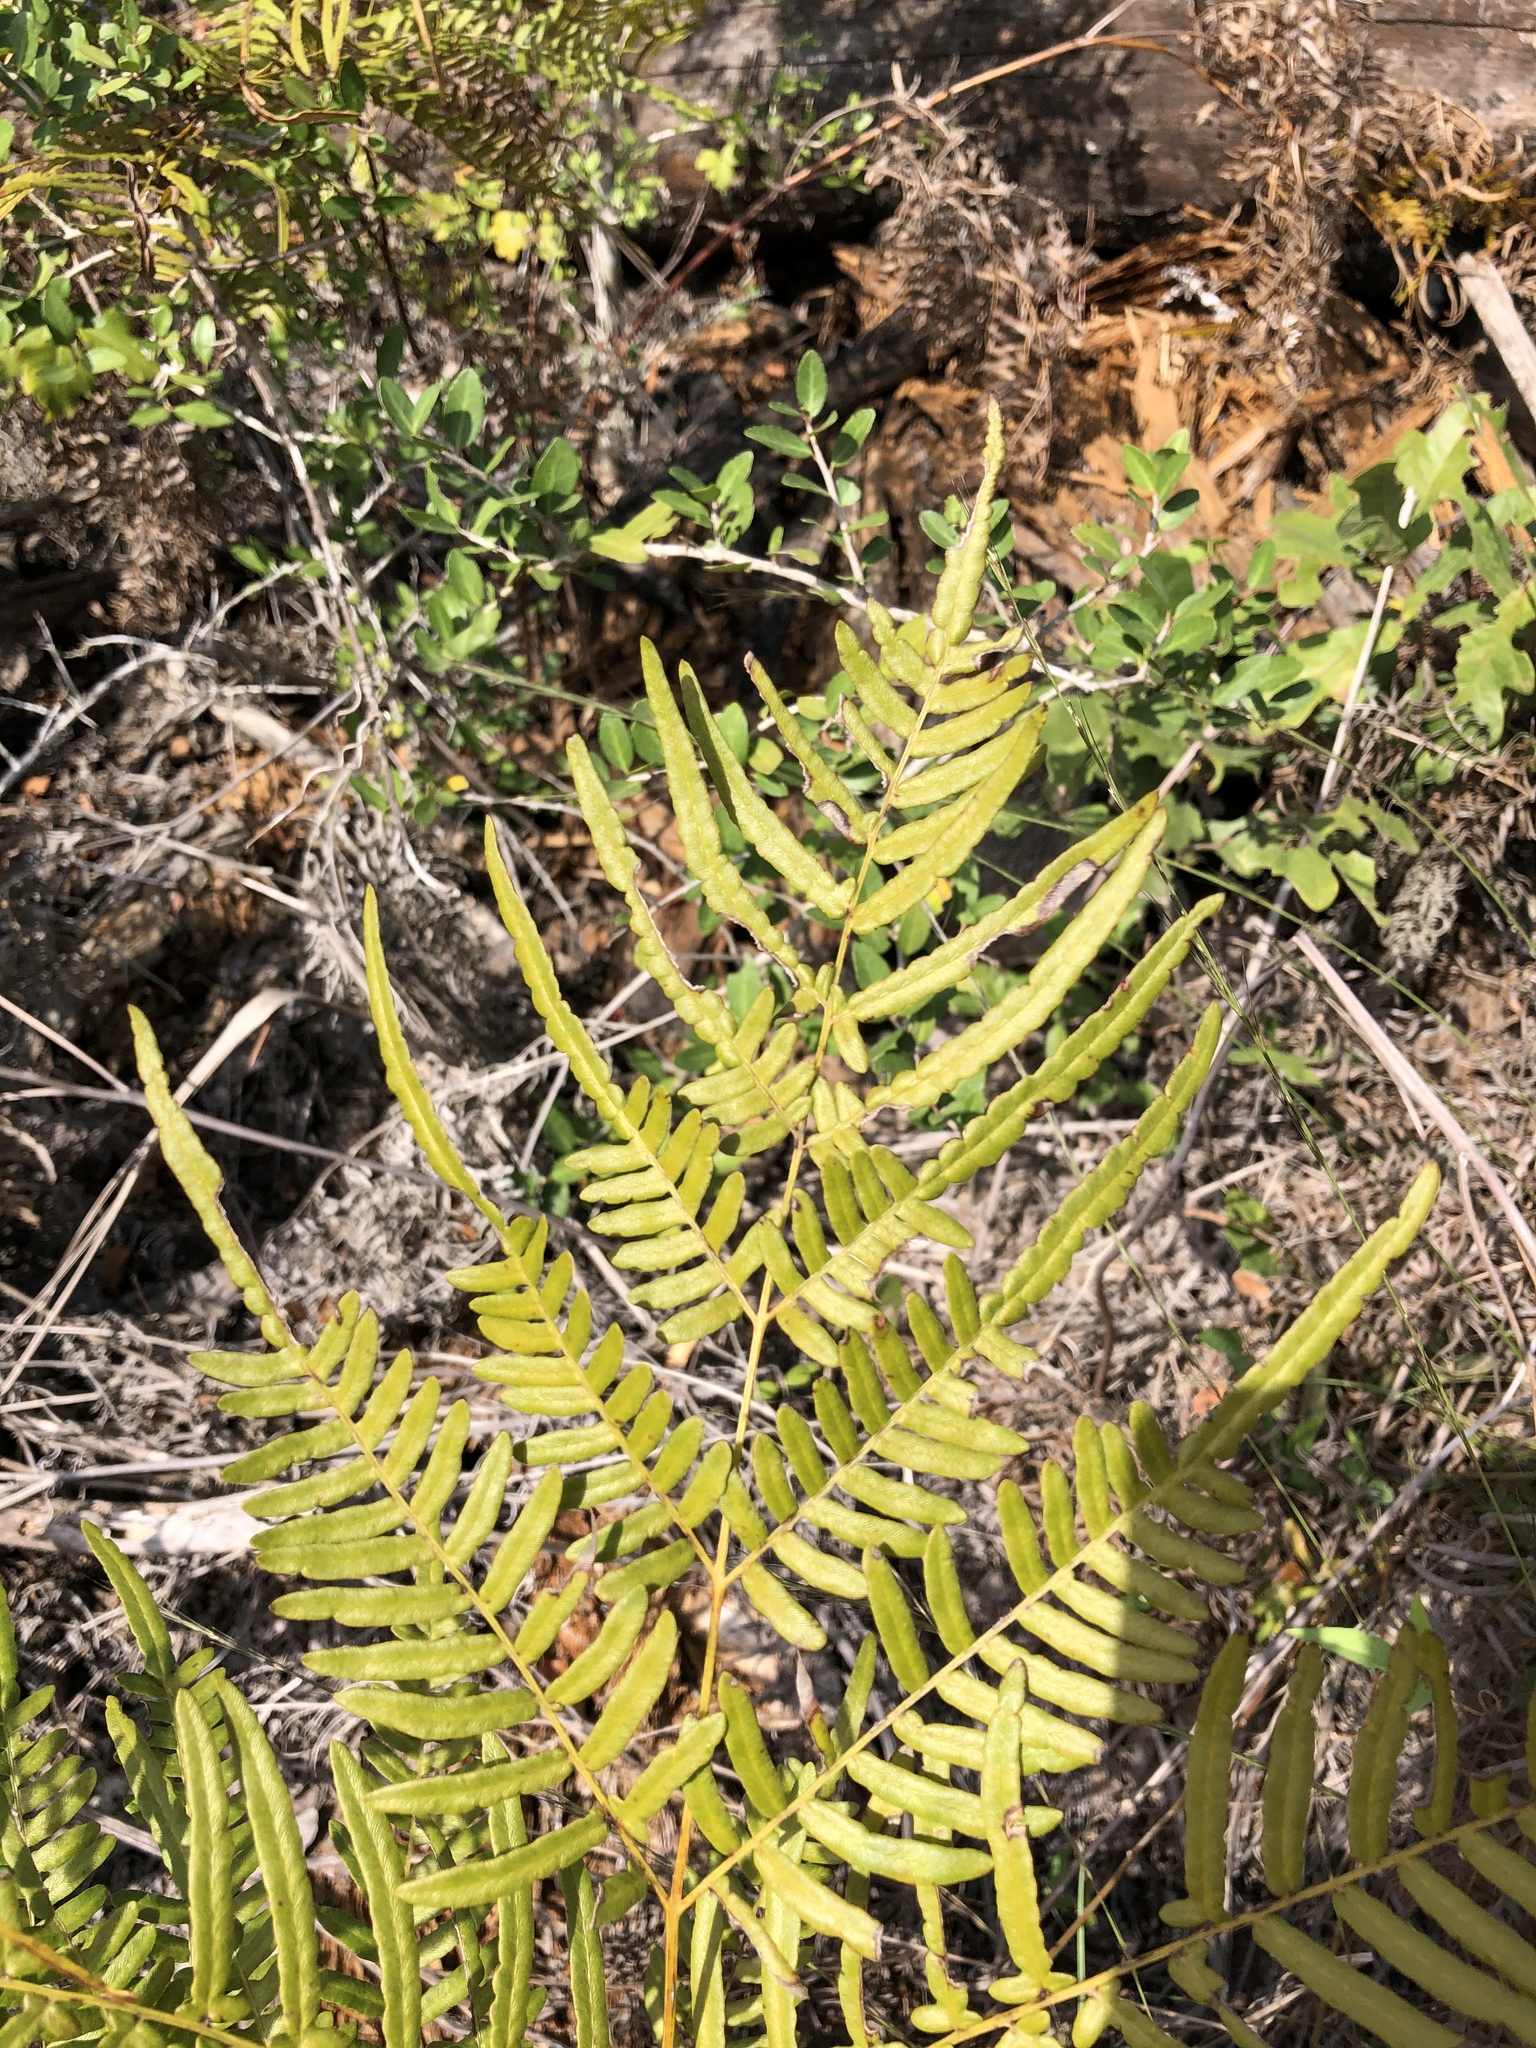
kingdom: Plantae
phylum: Tracheophyta
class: Polypodiopsida
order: Polypodiales
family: Dennstaedtiaceae
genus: Pteridium
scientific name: Pteridium
